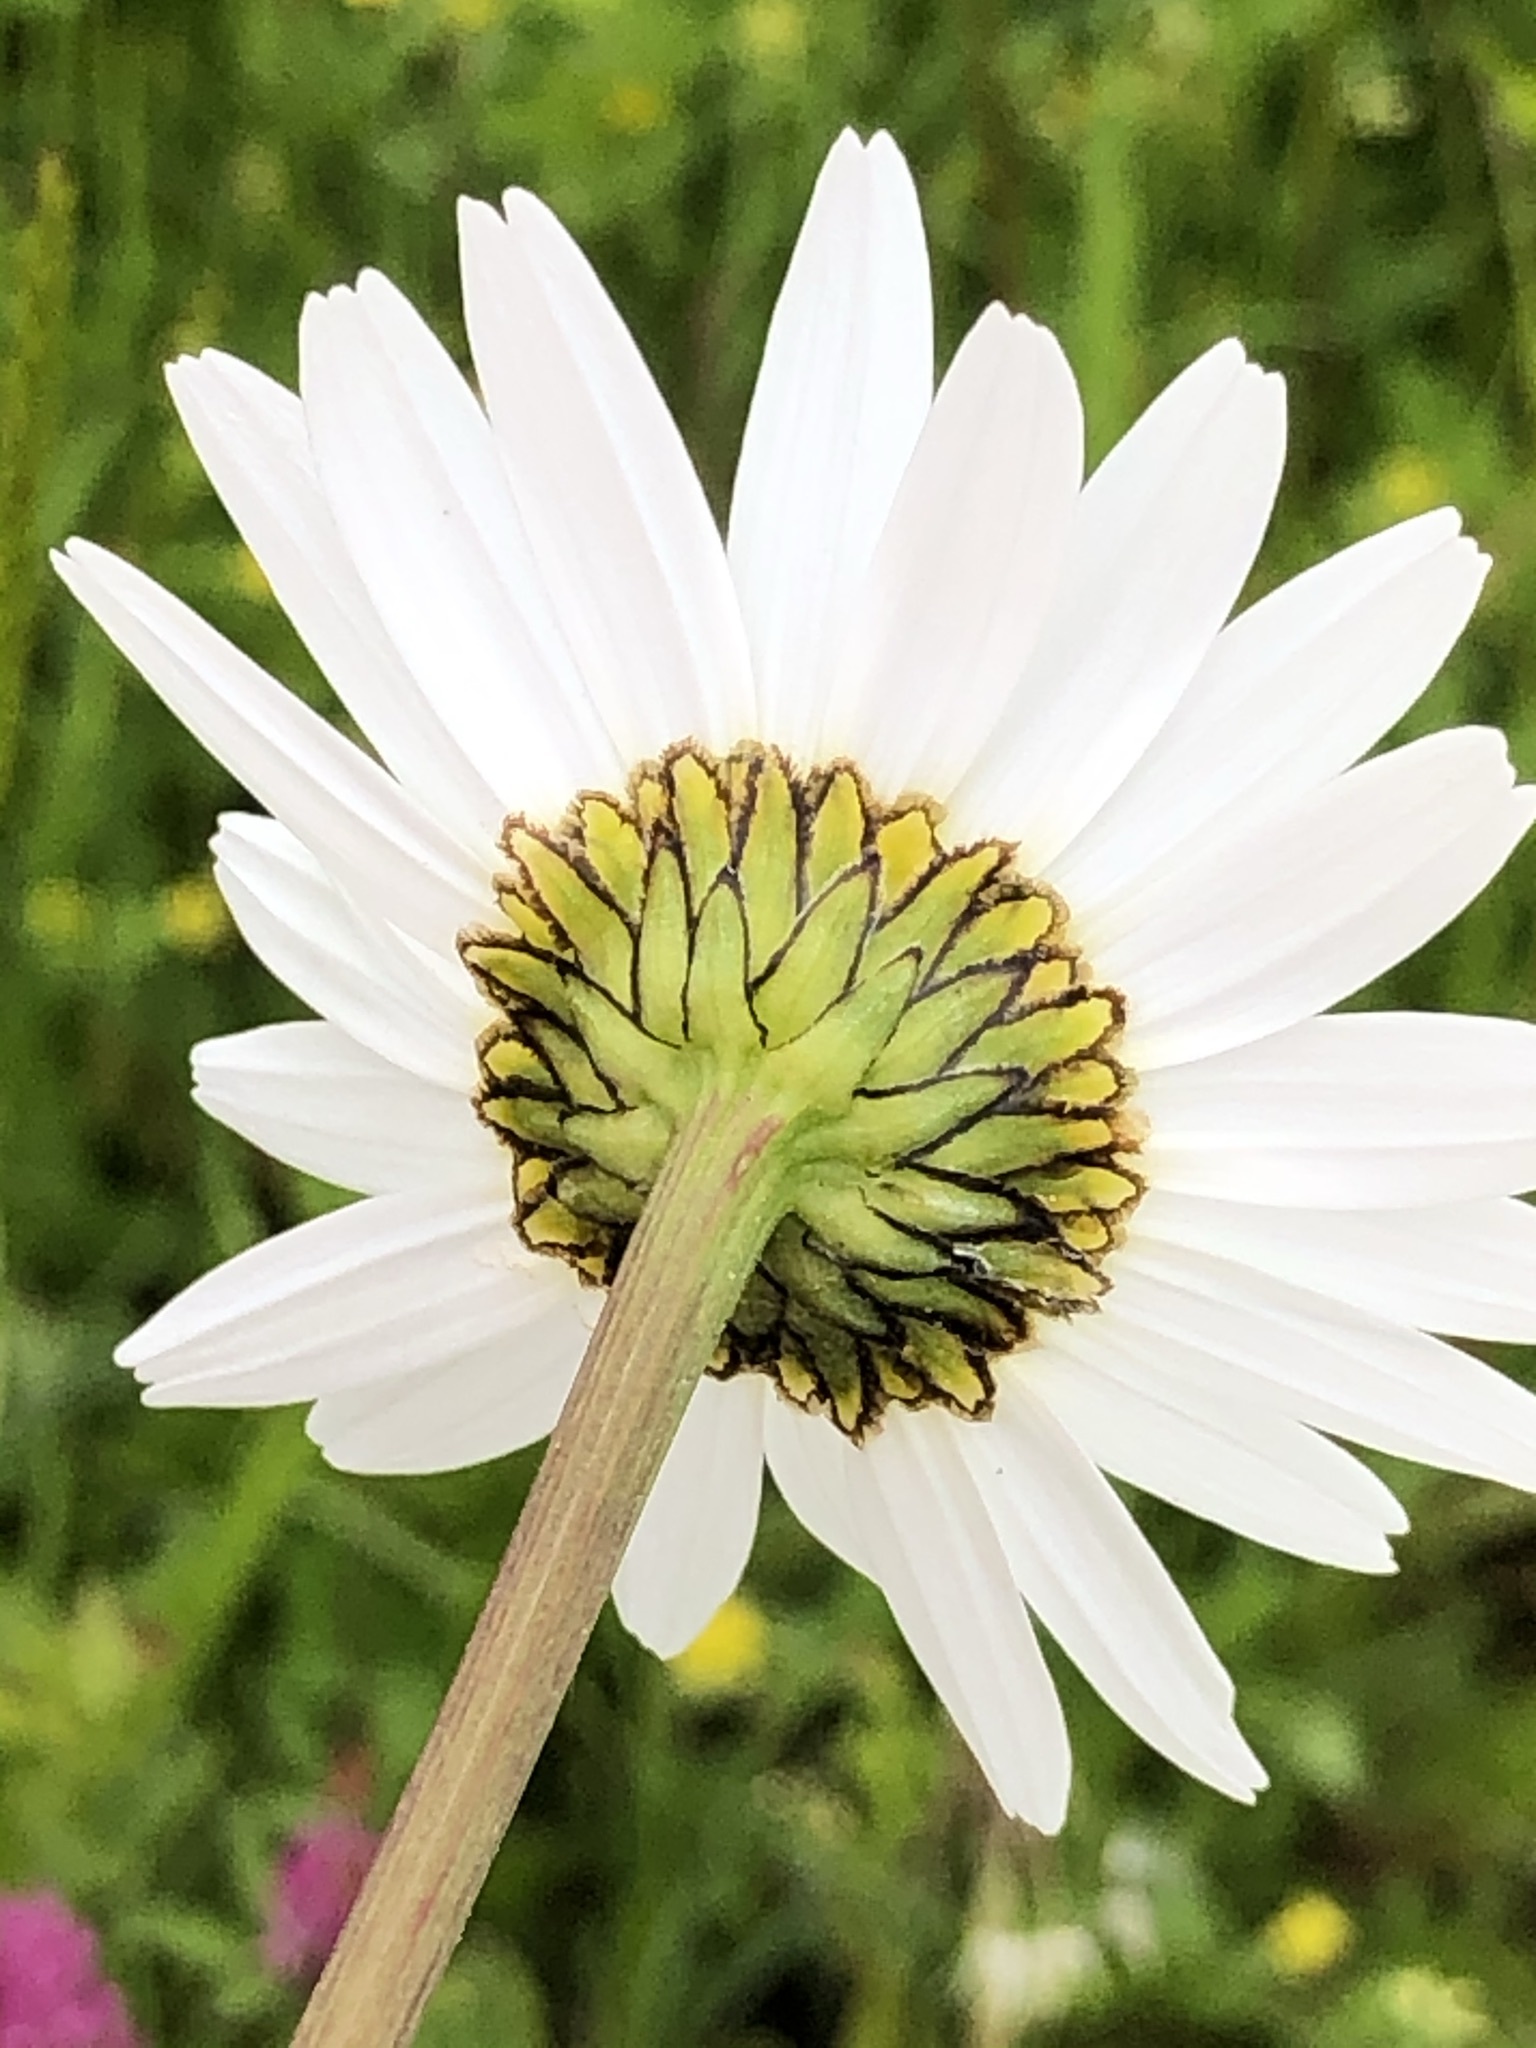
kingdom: Plantae
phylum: Tracheophyta
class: Magnoliopsida
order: Asterales
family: Asteraceae
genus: Leucanthemum
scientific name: Leucanthemum vulgare
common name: Oxeye daisy
